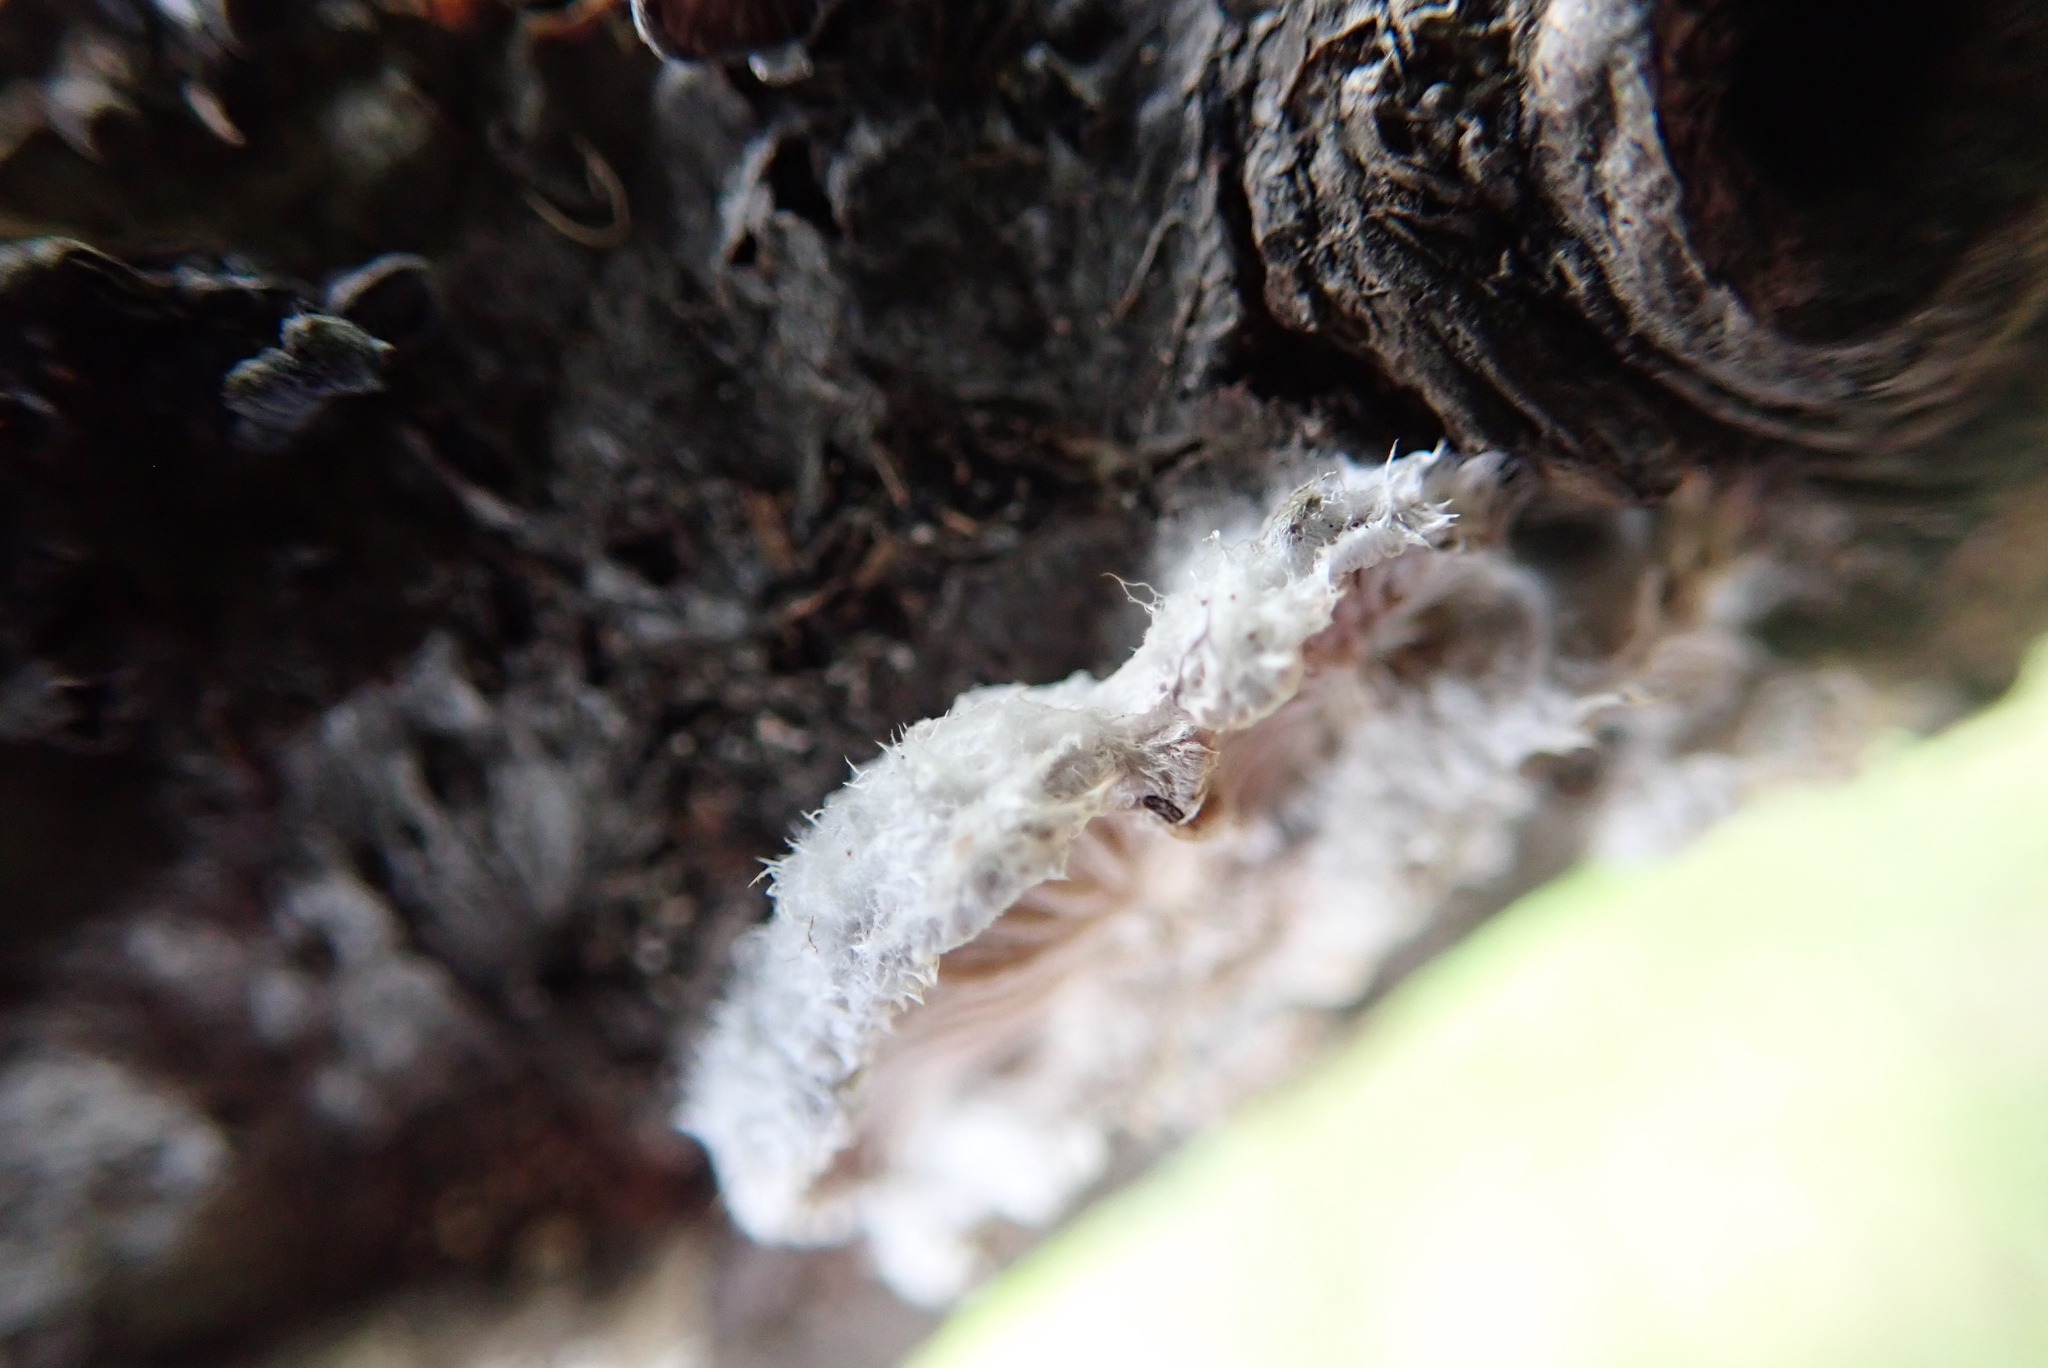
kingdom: Fungi
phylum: Basidiomycota
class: Agaricomycetes
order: Agaricales
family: Schizophyllaceae
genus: Schizophyllum
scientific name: Schizophyllum commune
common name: Common porecrust
